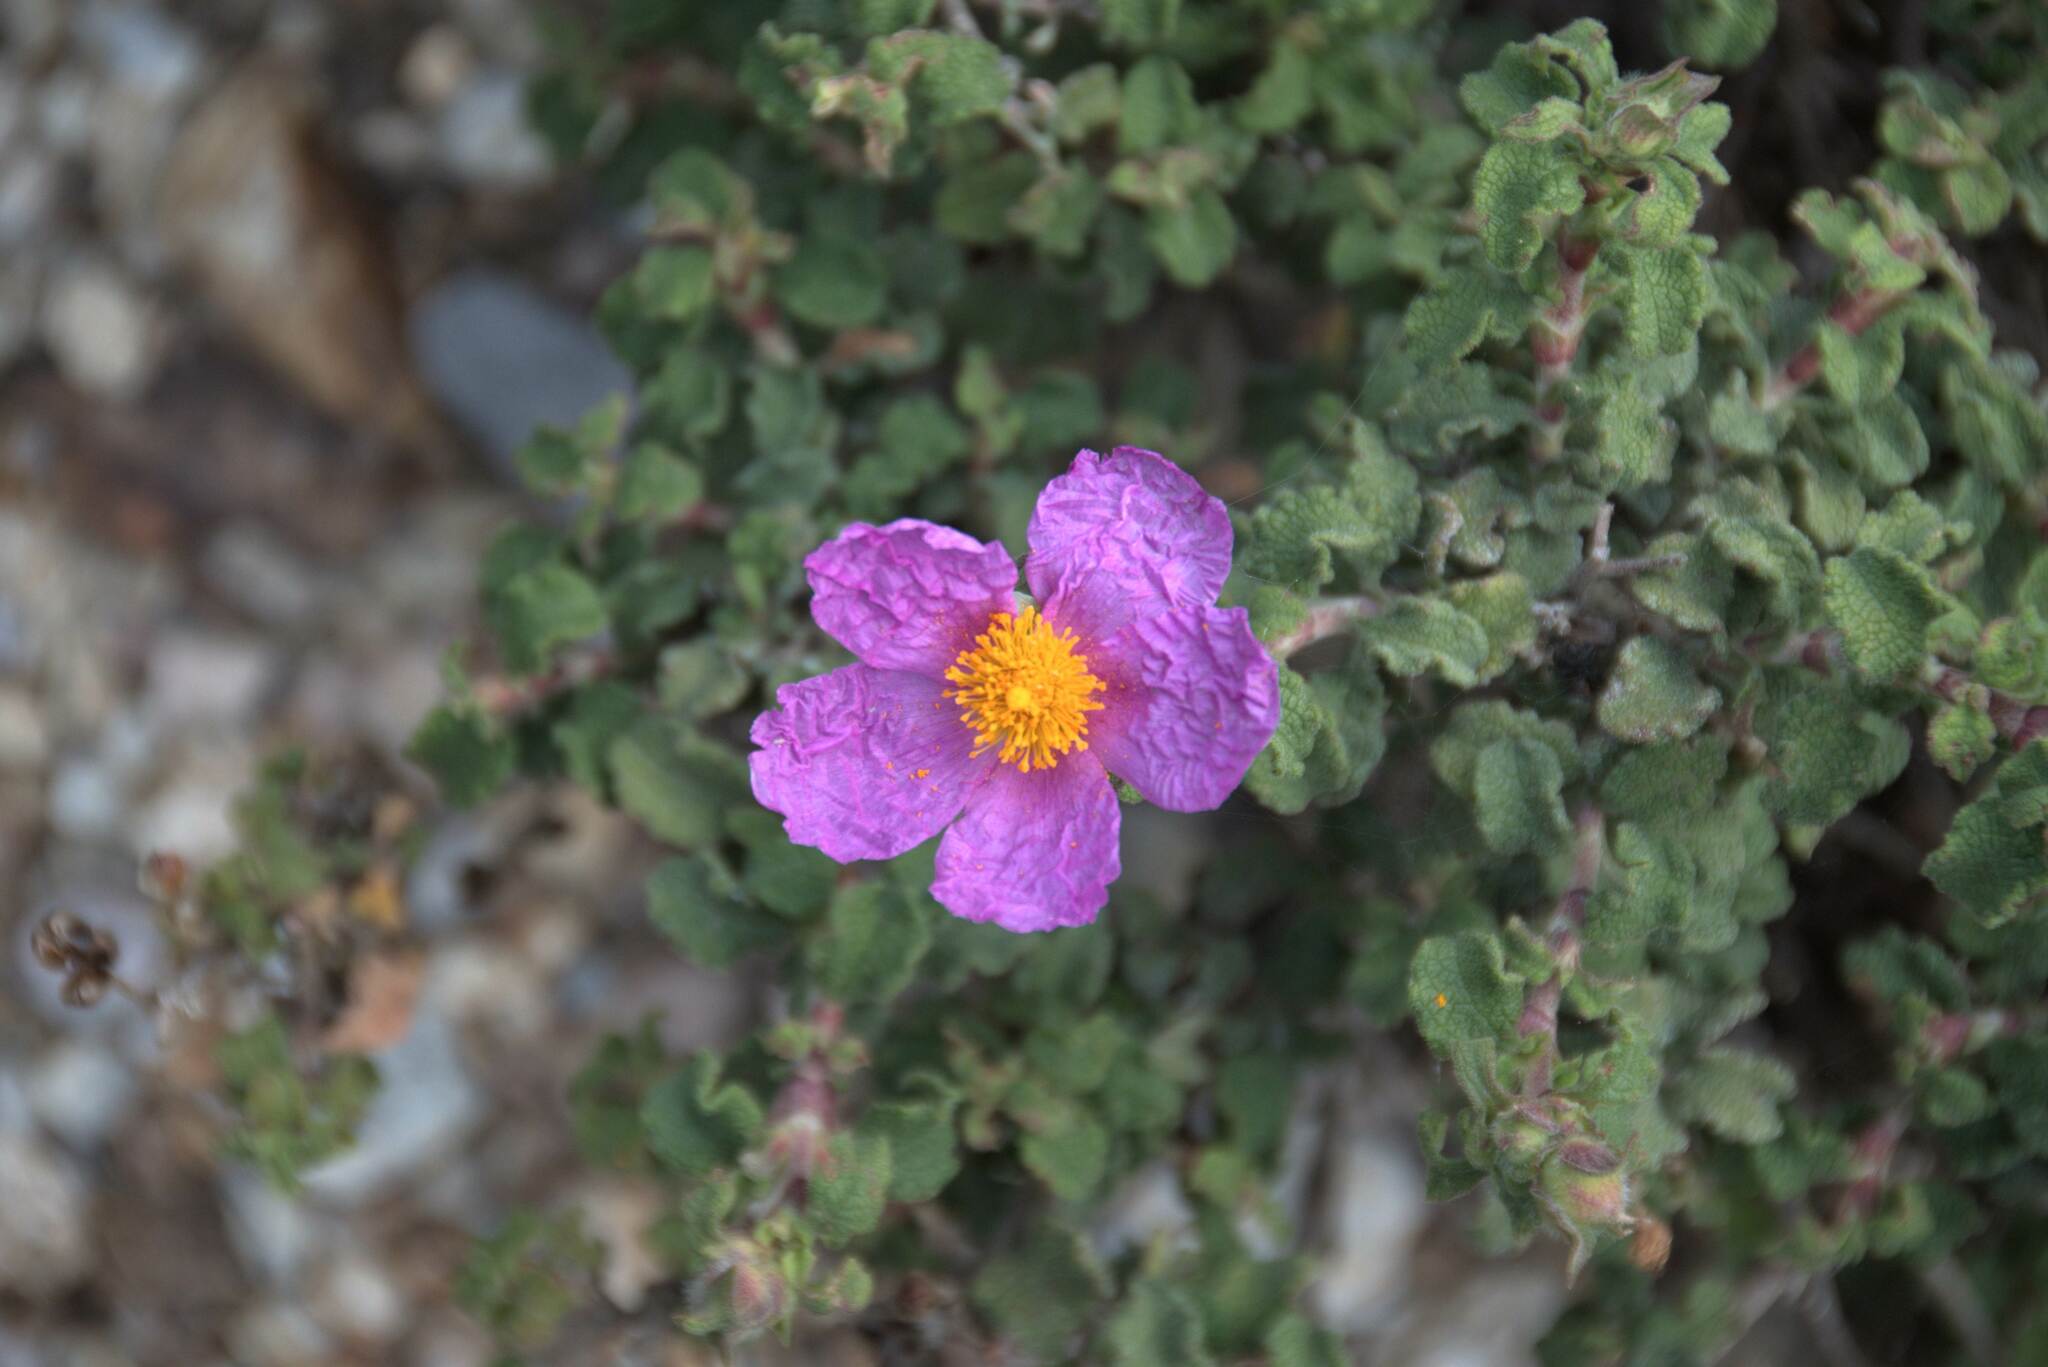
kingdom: Plantae
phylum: Tracheophyta
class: Magnoliopsida
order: Malvales
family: Cistaceae
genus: Cistus
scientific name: Cistus creticus
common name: Cretan rockrose
